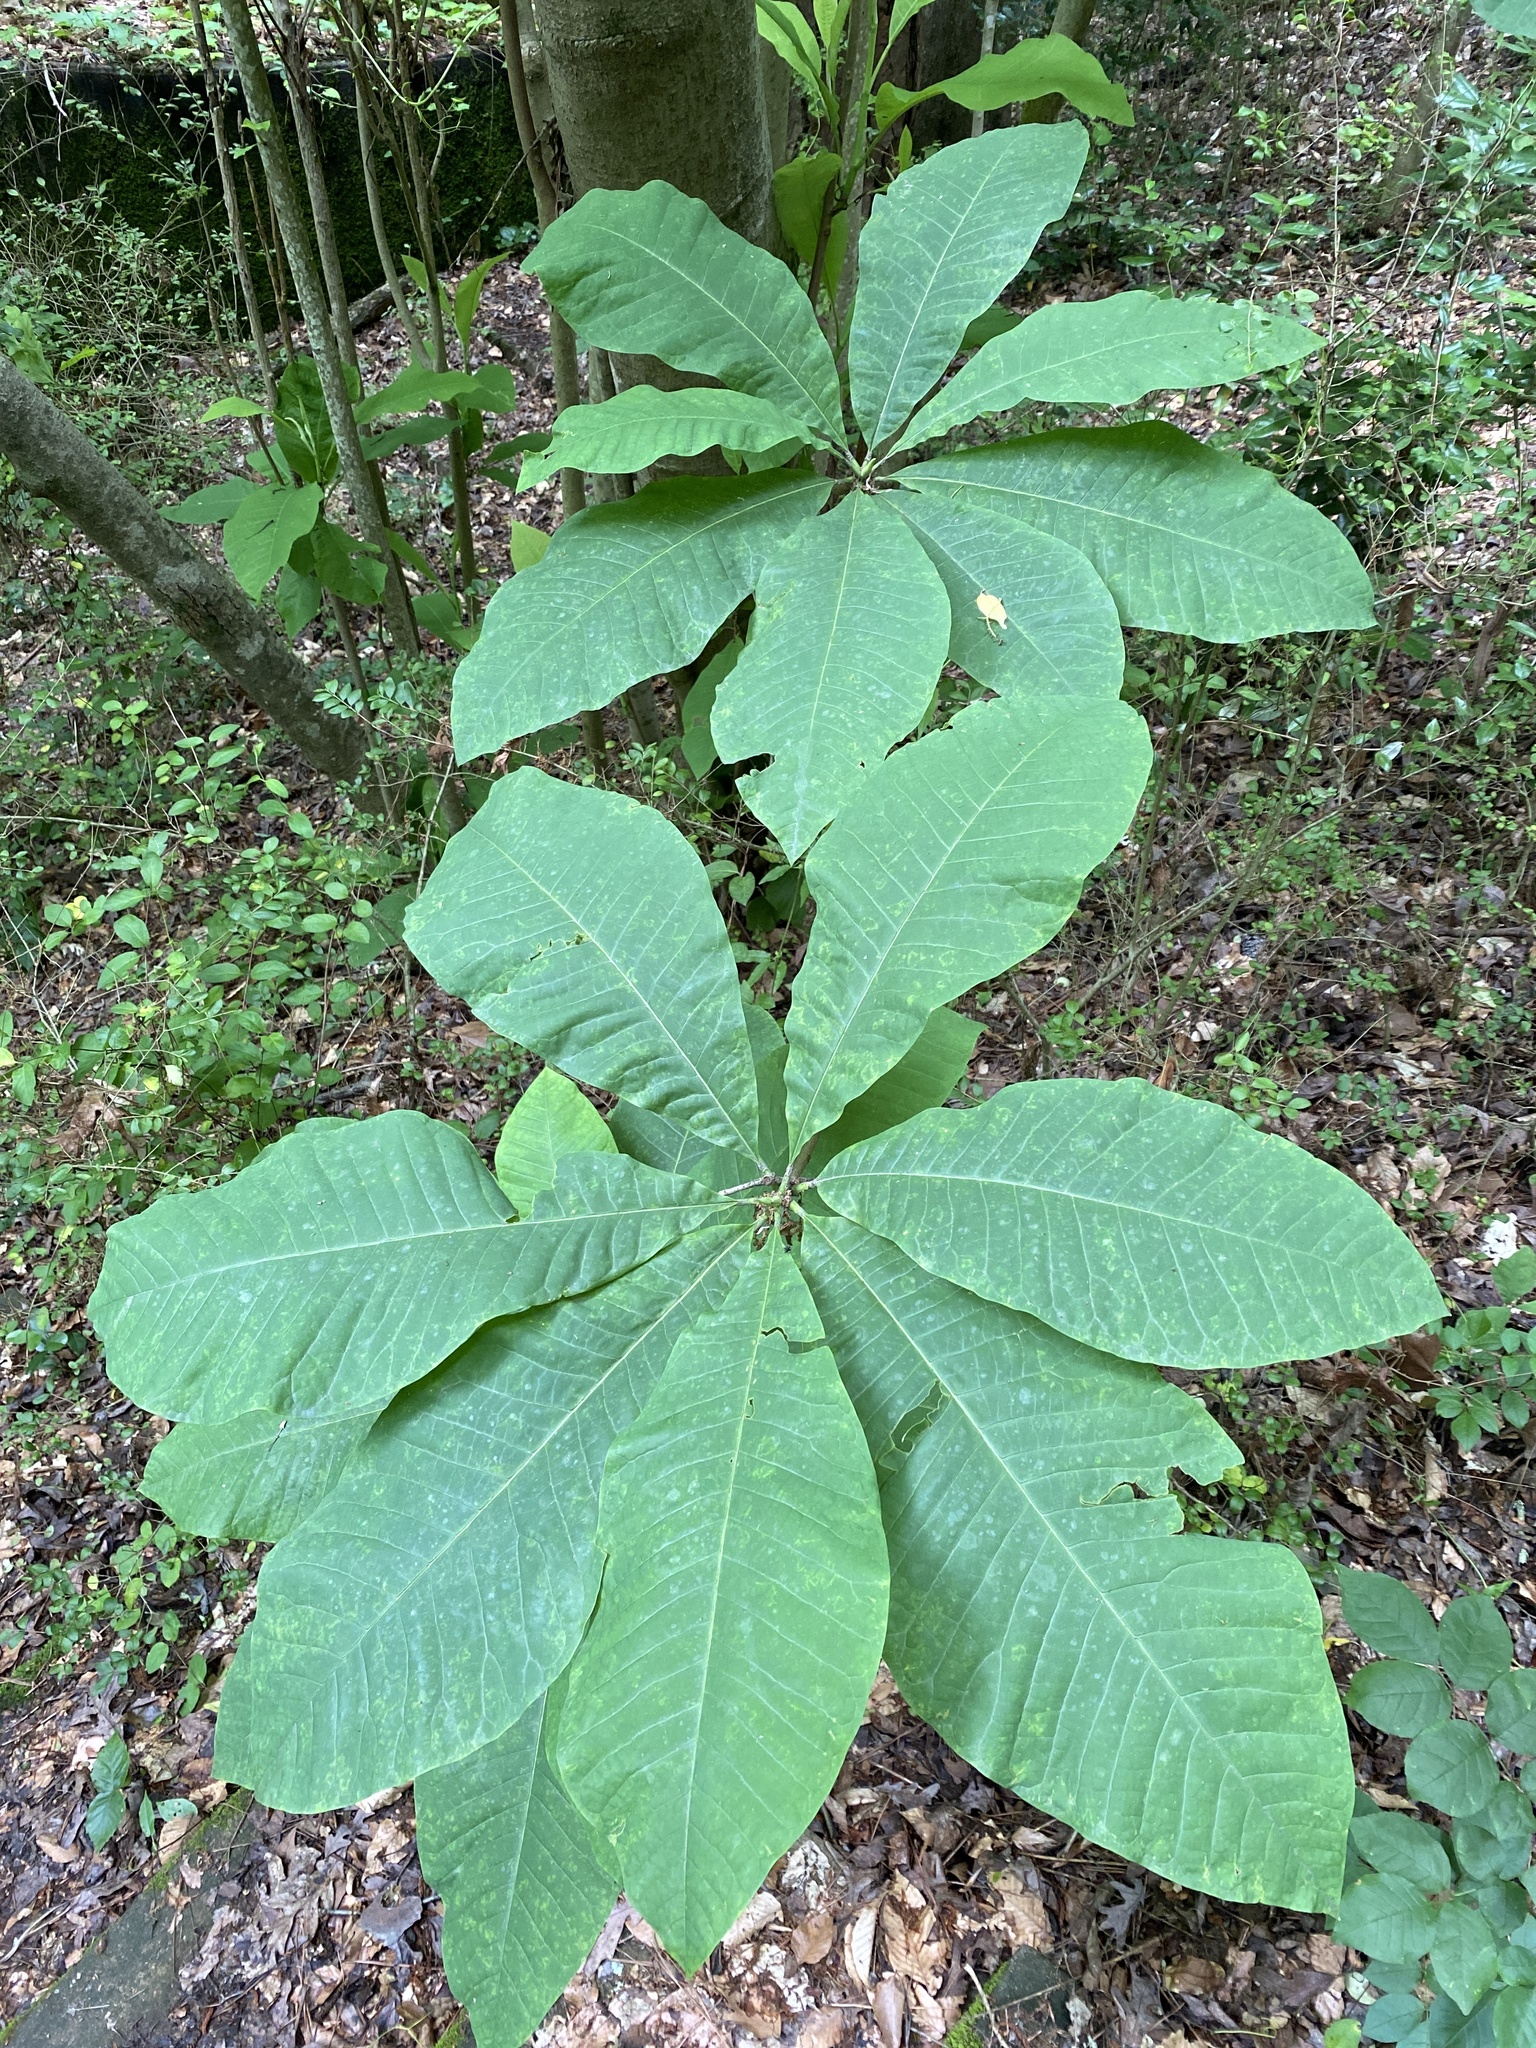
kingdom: Plantae
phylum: Tracheophyta
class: Magnoliopsida
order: Magnoliales
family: Magnoliaceae
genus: Magnolia
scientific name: Magnolia tripetala
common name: Umbrella magnolia
